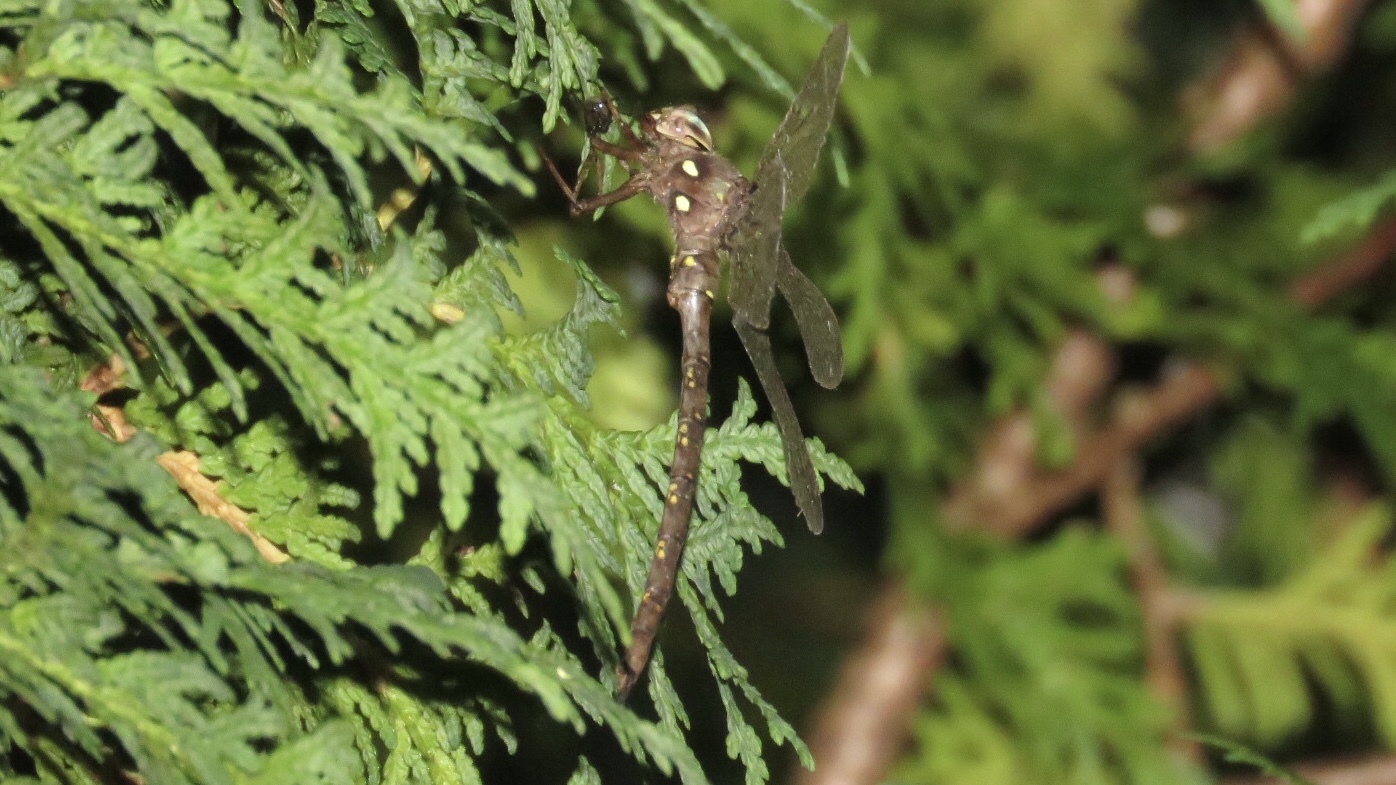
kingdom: Animalia
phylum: Arthropoda
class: Insecta
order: Odonata
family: Aeshnidae
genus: Boyeria
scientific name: Boyeria vinosa
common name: Fawn darner
